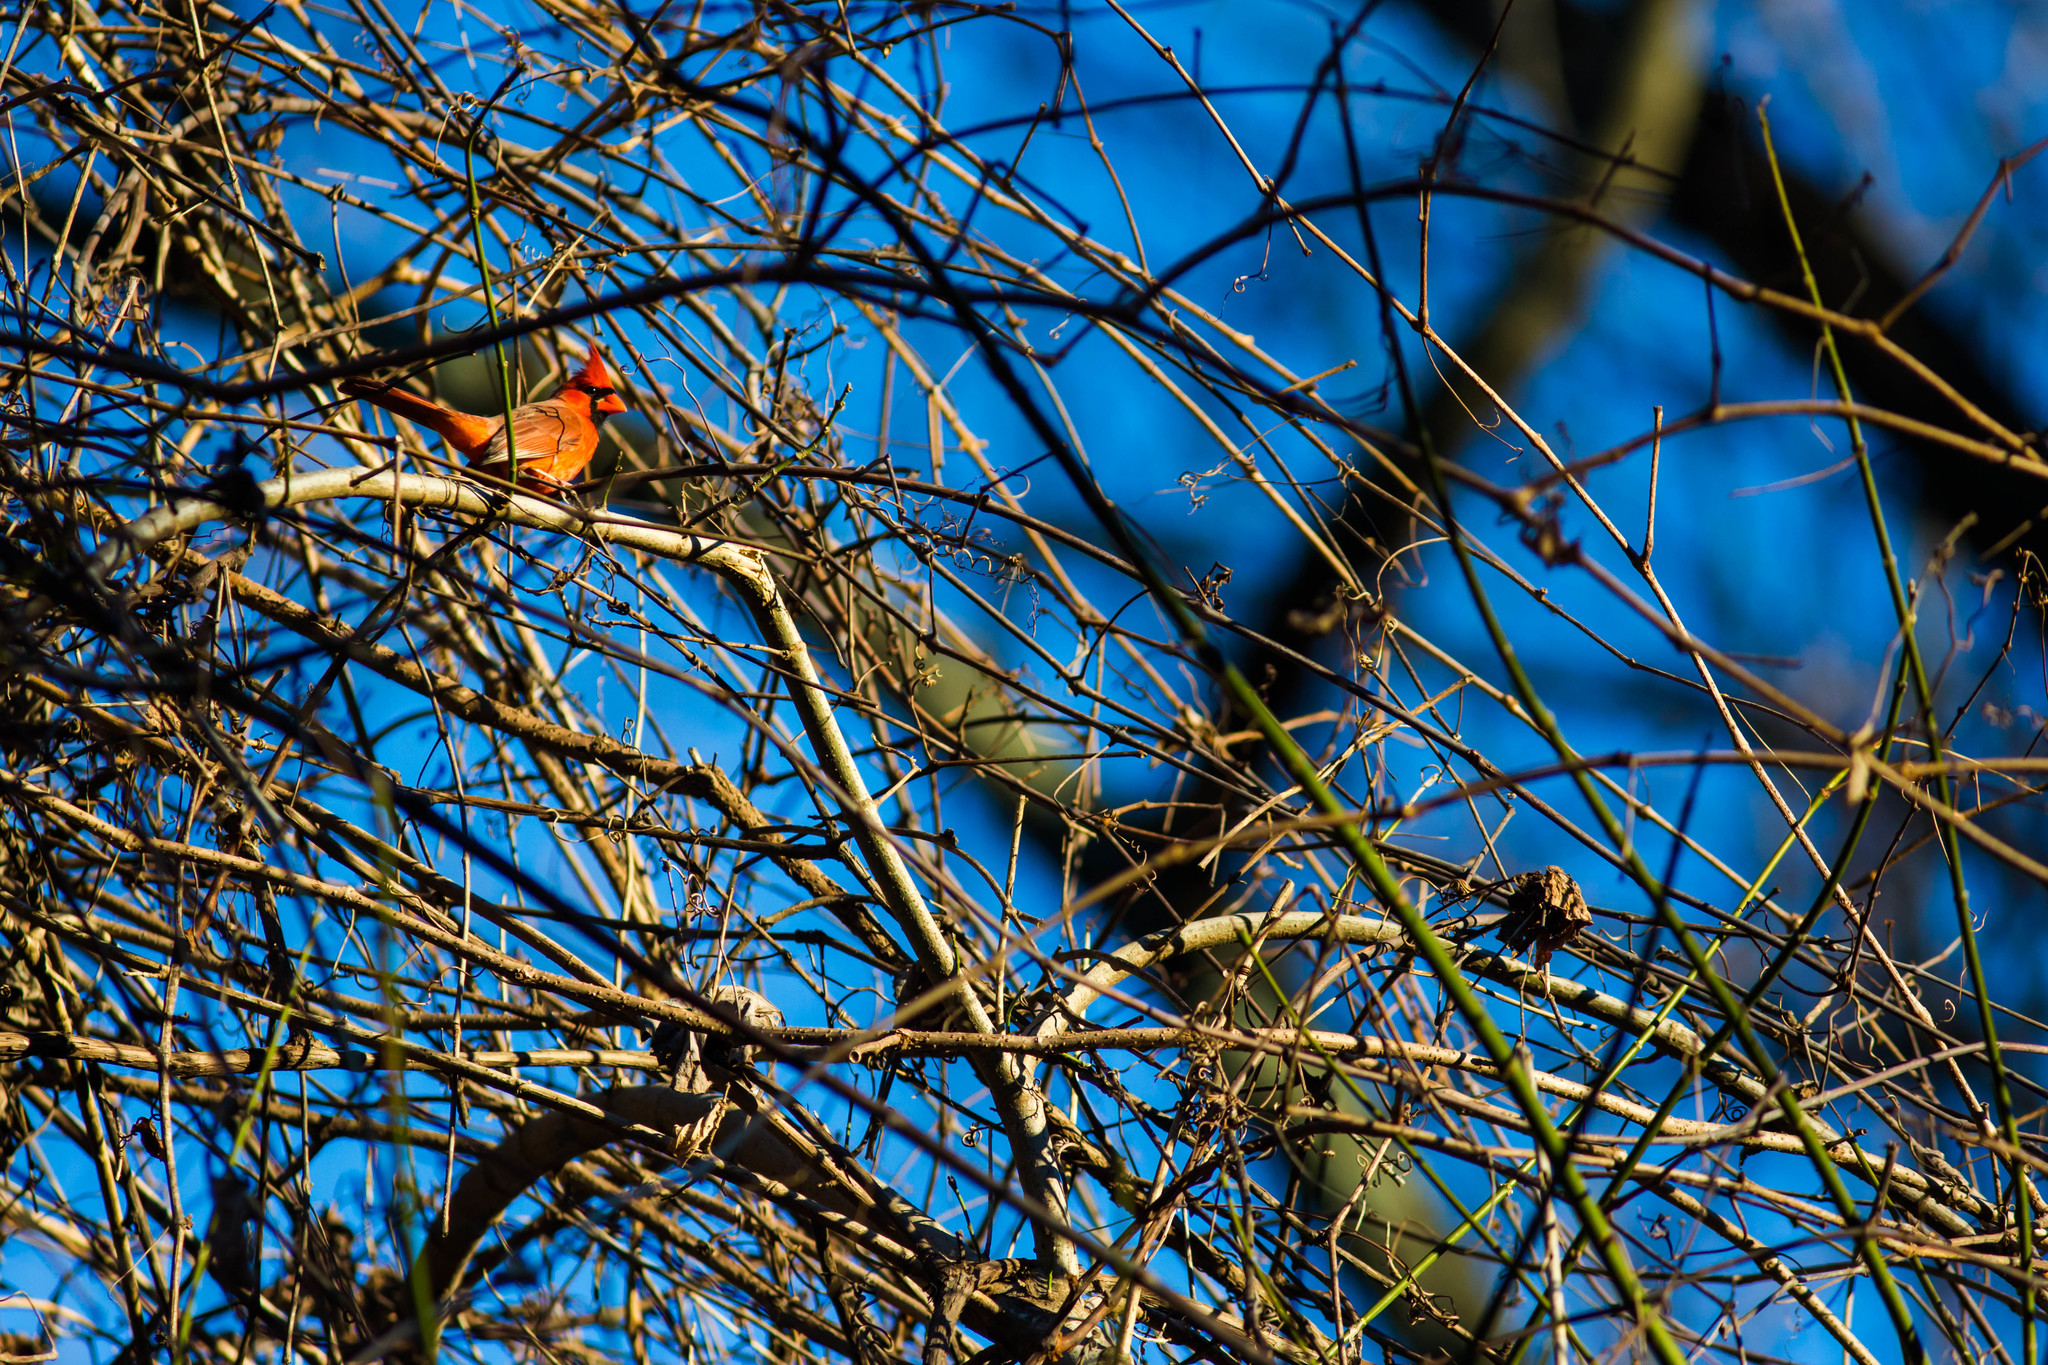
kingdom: Animalia
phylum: Chordata
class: Aves
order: Passeriformes
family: Cardinalidae
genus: Cardinalis
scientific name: Cardinalis cardinalis
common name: Northern cardinal
